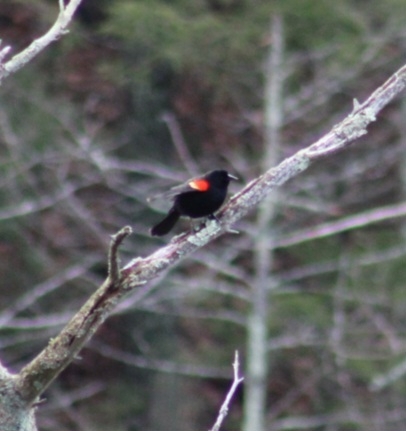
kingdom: Animalia
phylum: Chordata
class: Aves
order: Passeriformes
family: Icteridae
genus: Agelaius
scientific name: Agelaius phoeniceus
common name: Red-winged blackbird
